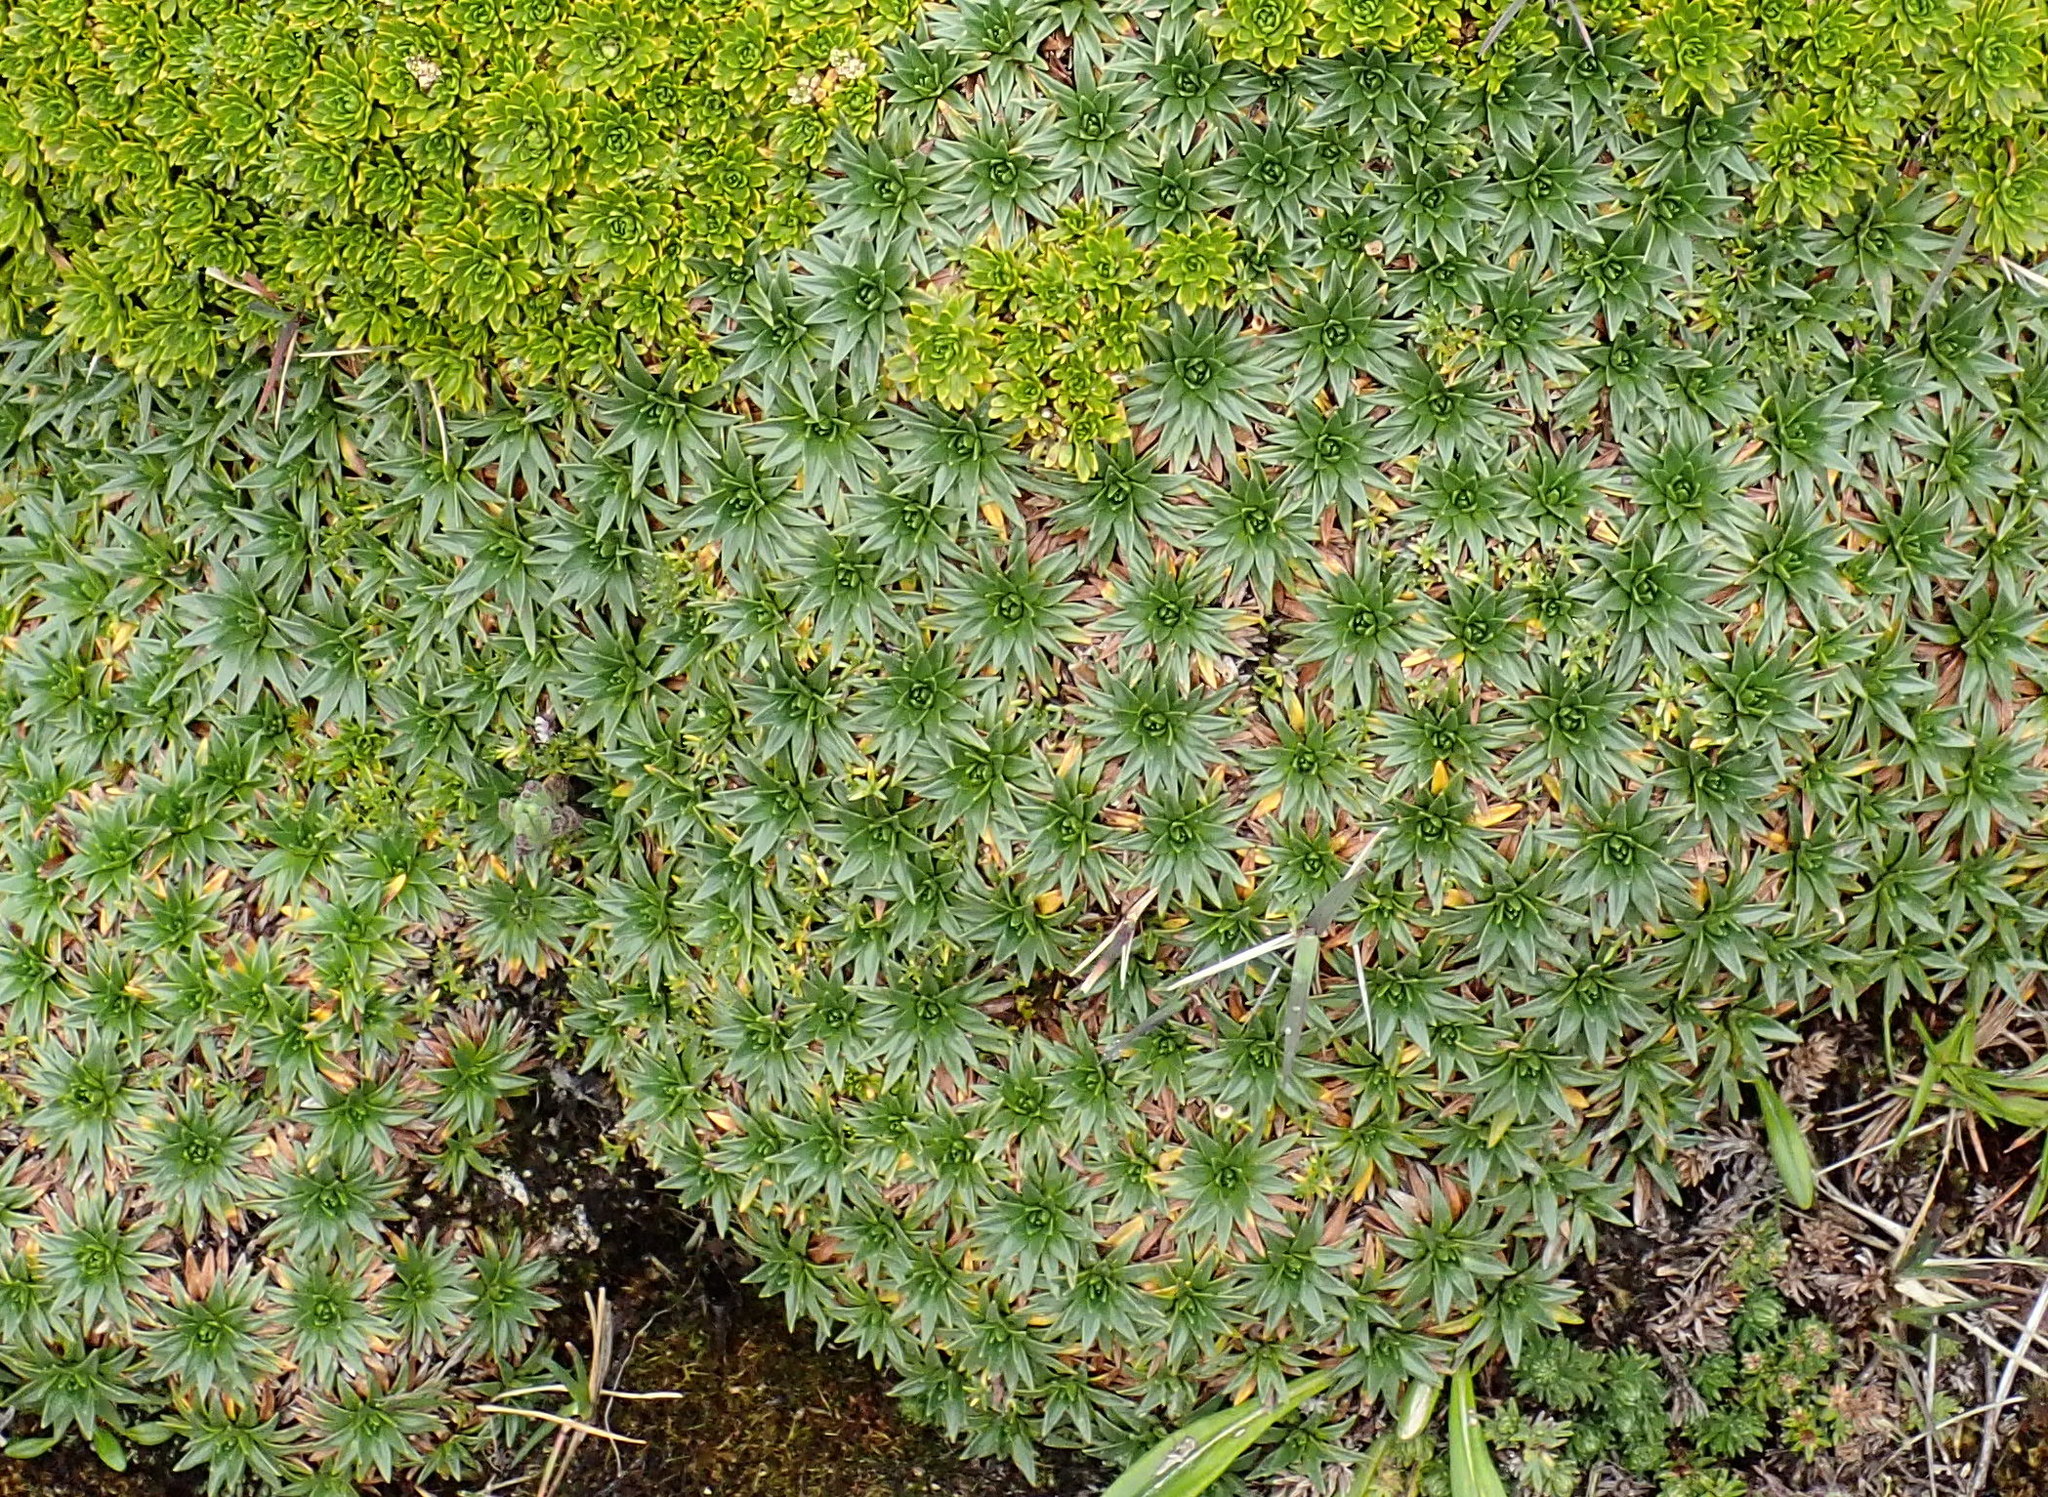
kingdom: Plantae
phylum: Tracheophyta
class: Magnoliopsida
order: Lamiales
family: Plantaginaceae
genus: Plantago
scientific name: Plantago rigida
